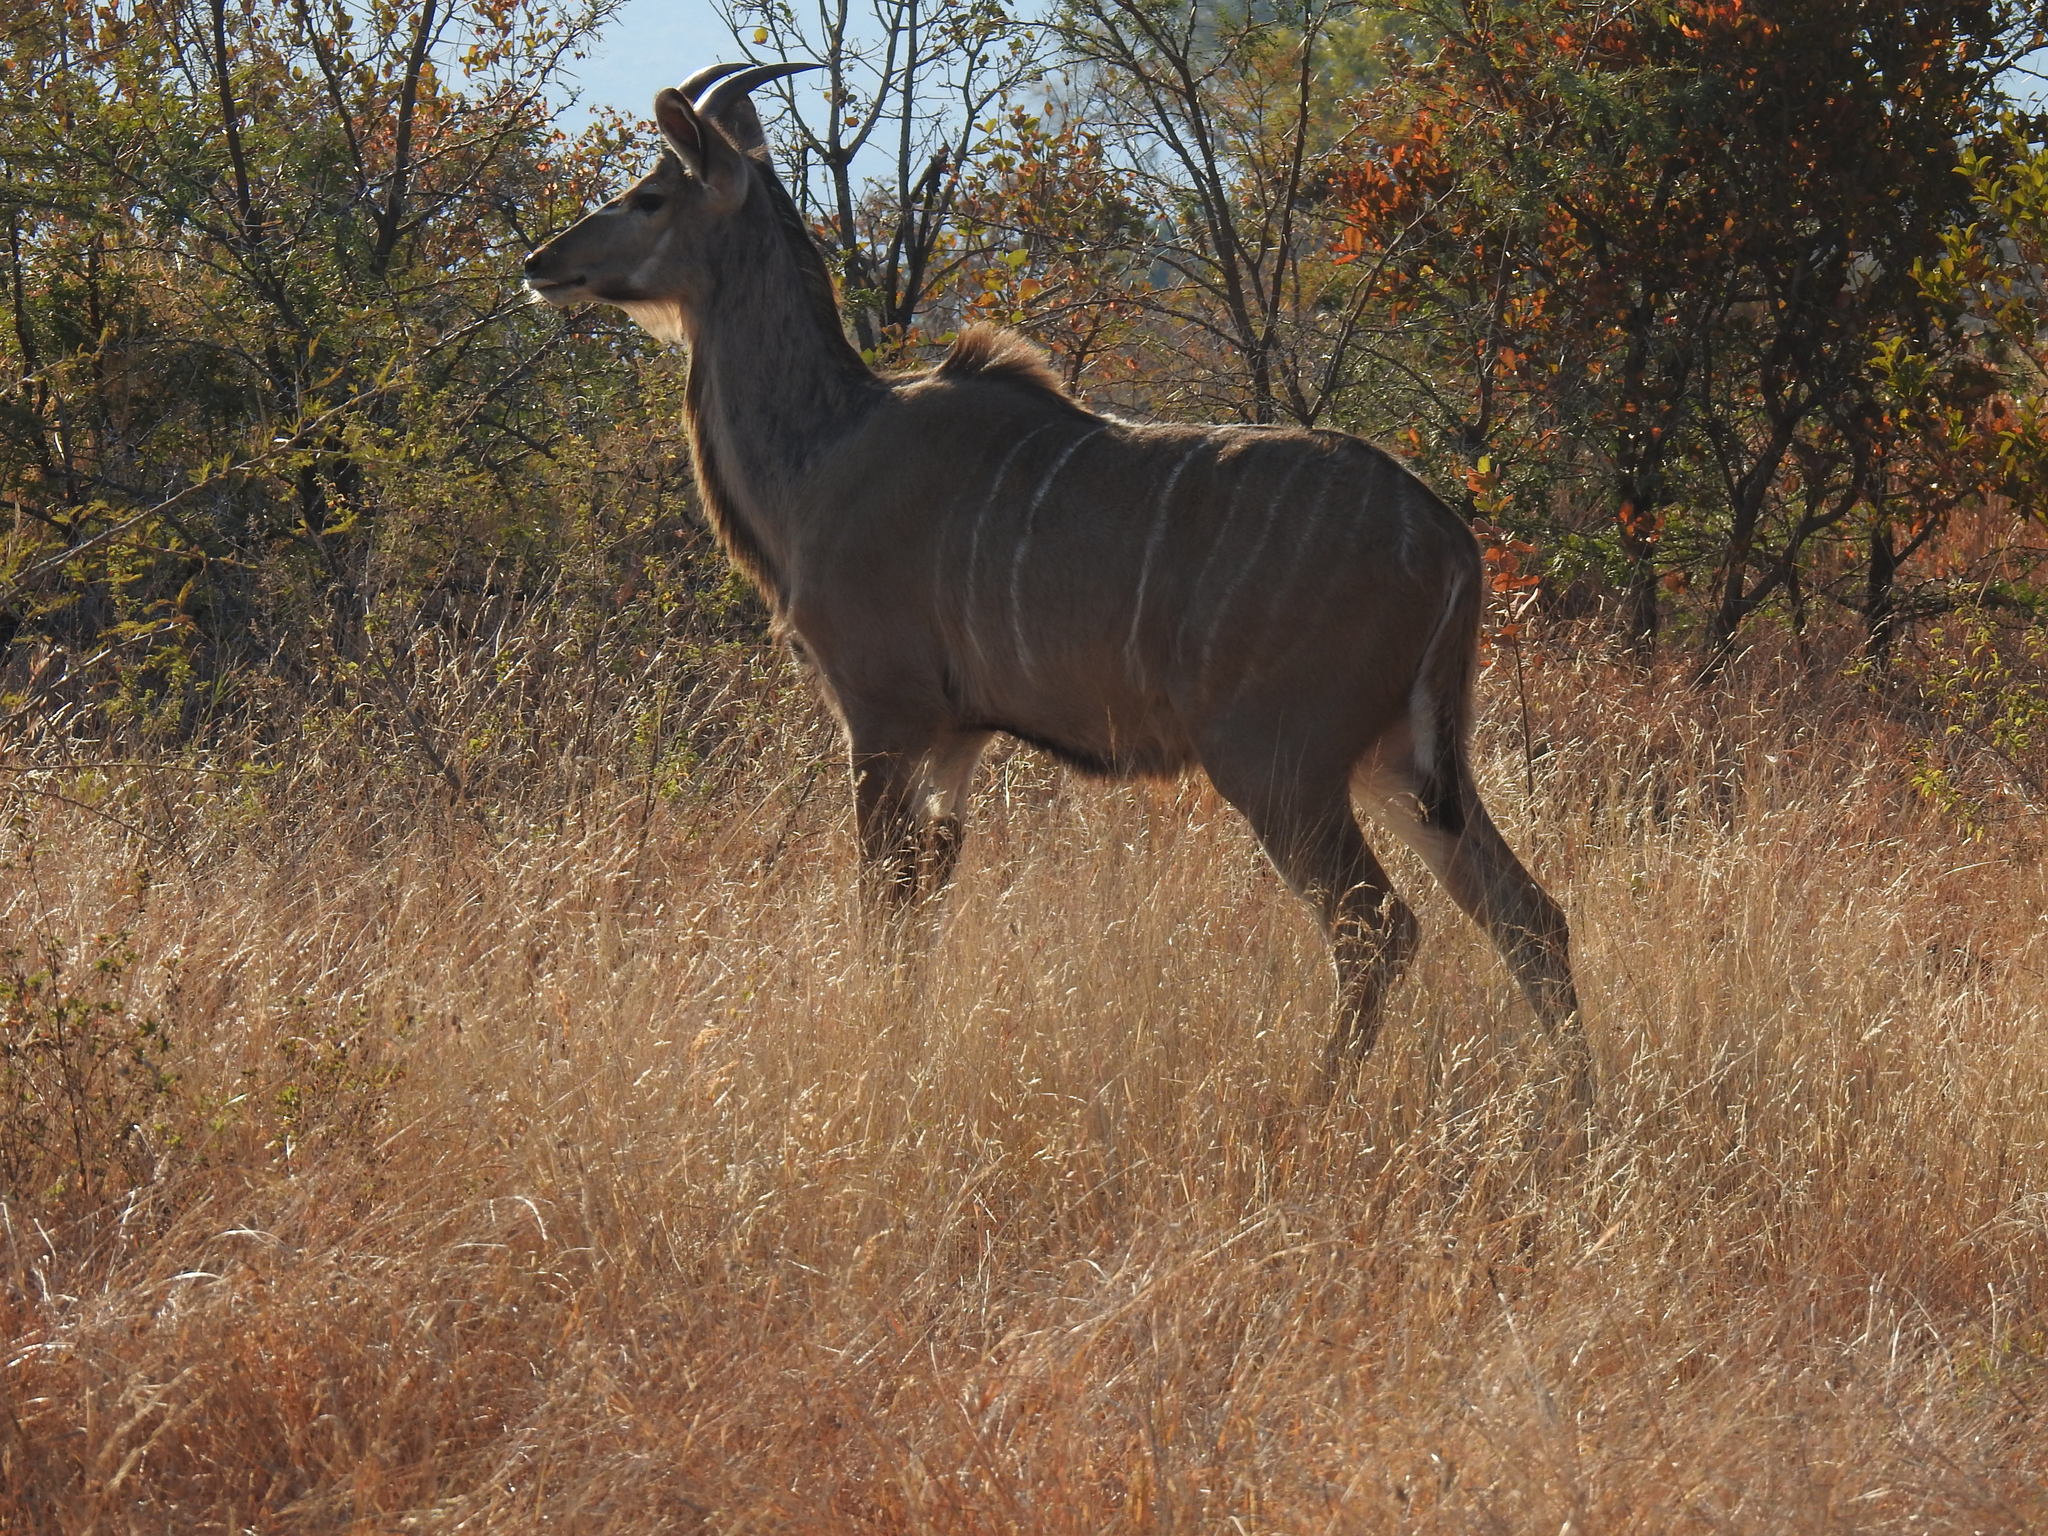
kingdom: Animalia
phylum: Chordata
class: Mammalia
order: Artiodactyla
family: Bovidae
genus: Tragelaphus
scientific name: Tragelaphus strepsiceros
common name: Greater kudu
